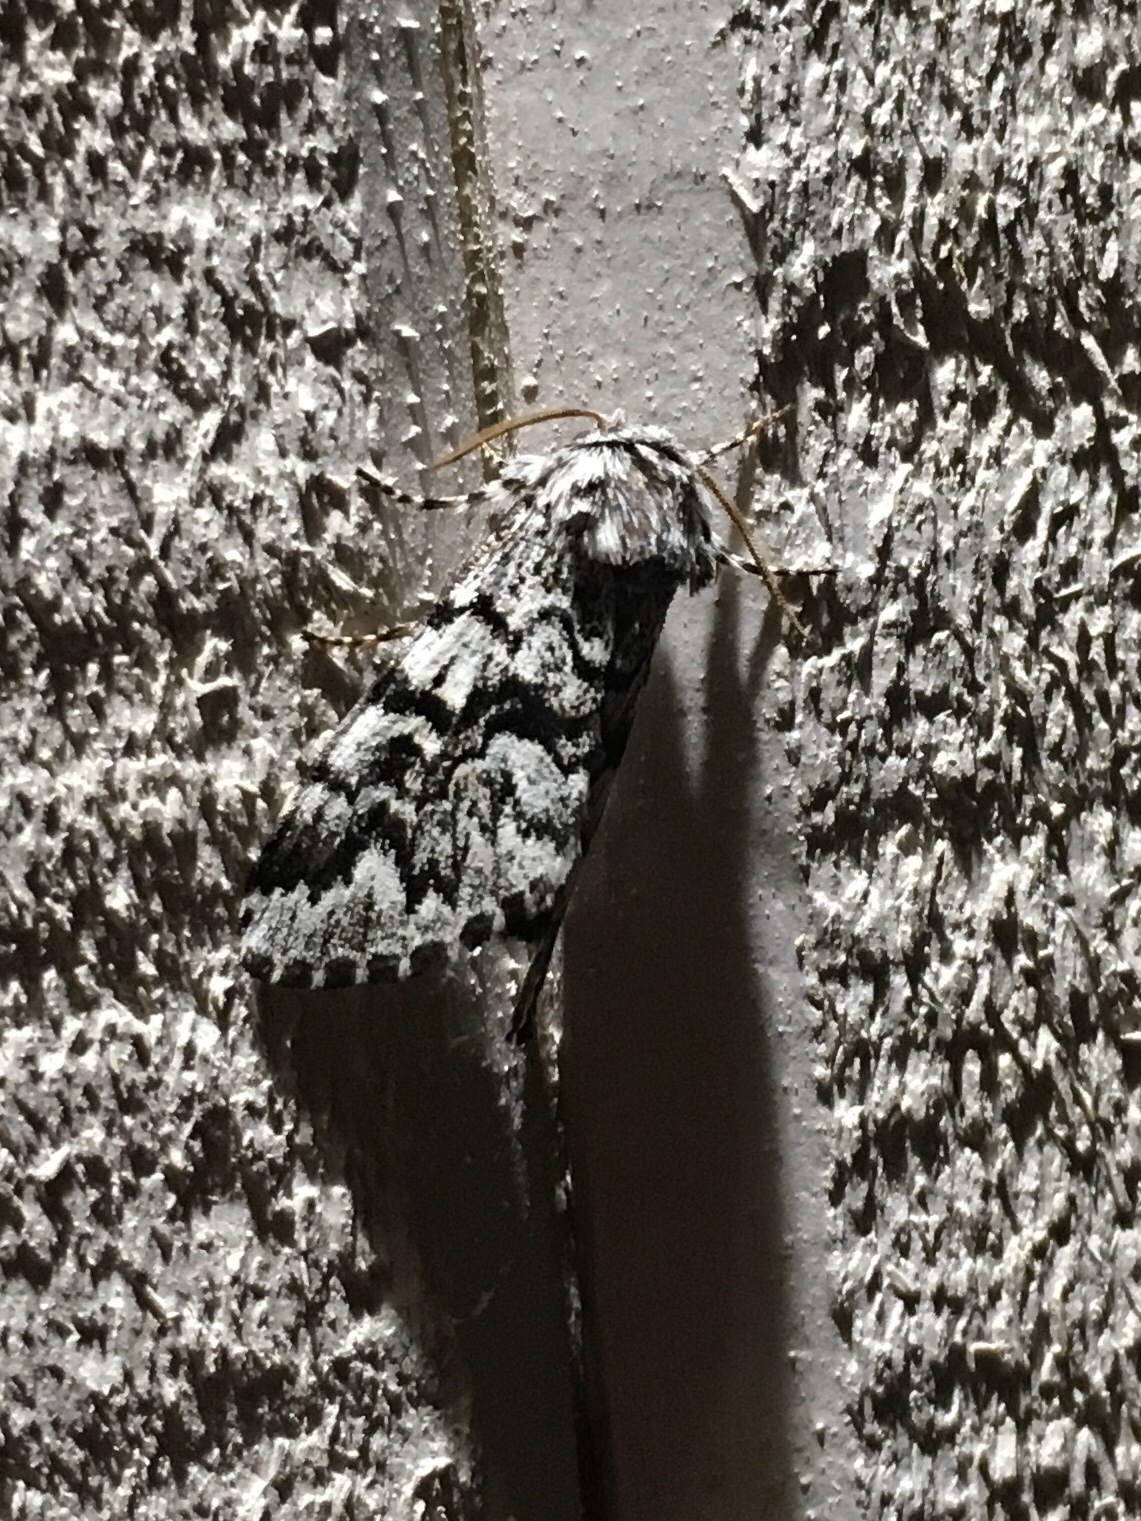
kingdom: Animalia
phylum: Arthropoda
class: Insecta
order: Lepidoptera
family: Noctuidae
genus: Panthea
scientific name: Panthea acronyctoides
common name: Black zigzag moth
